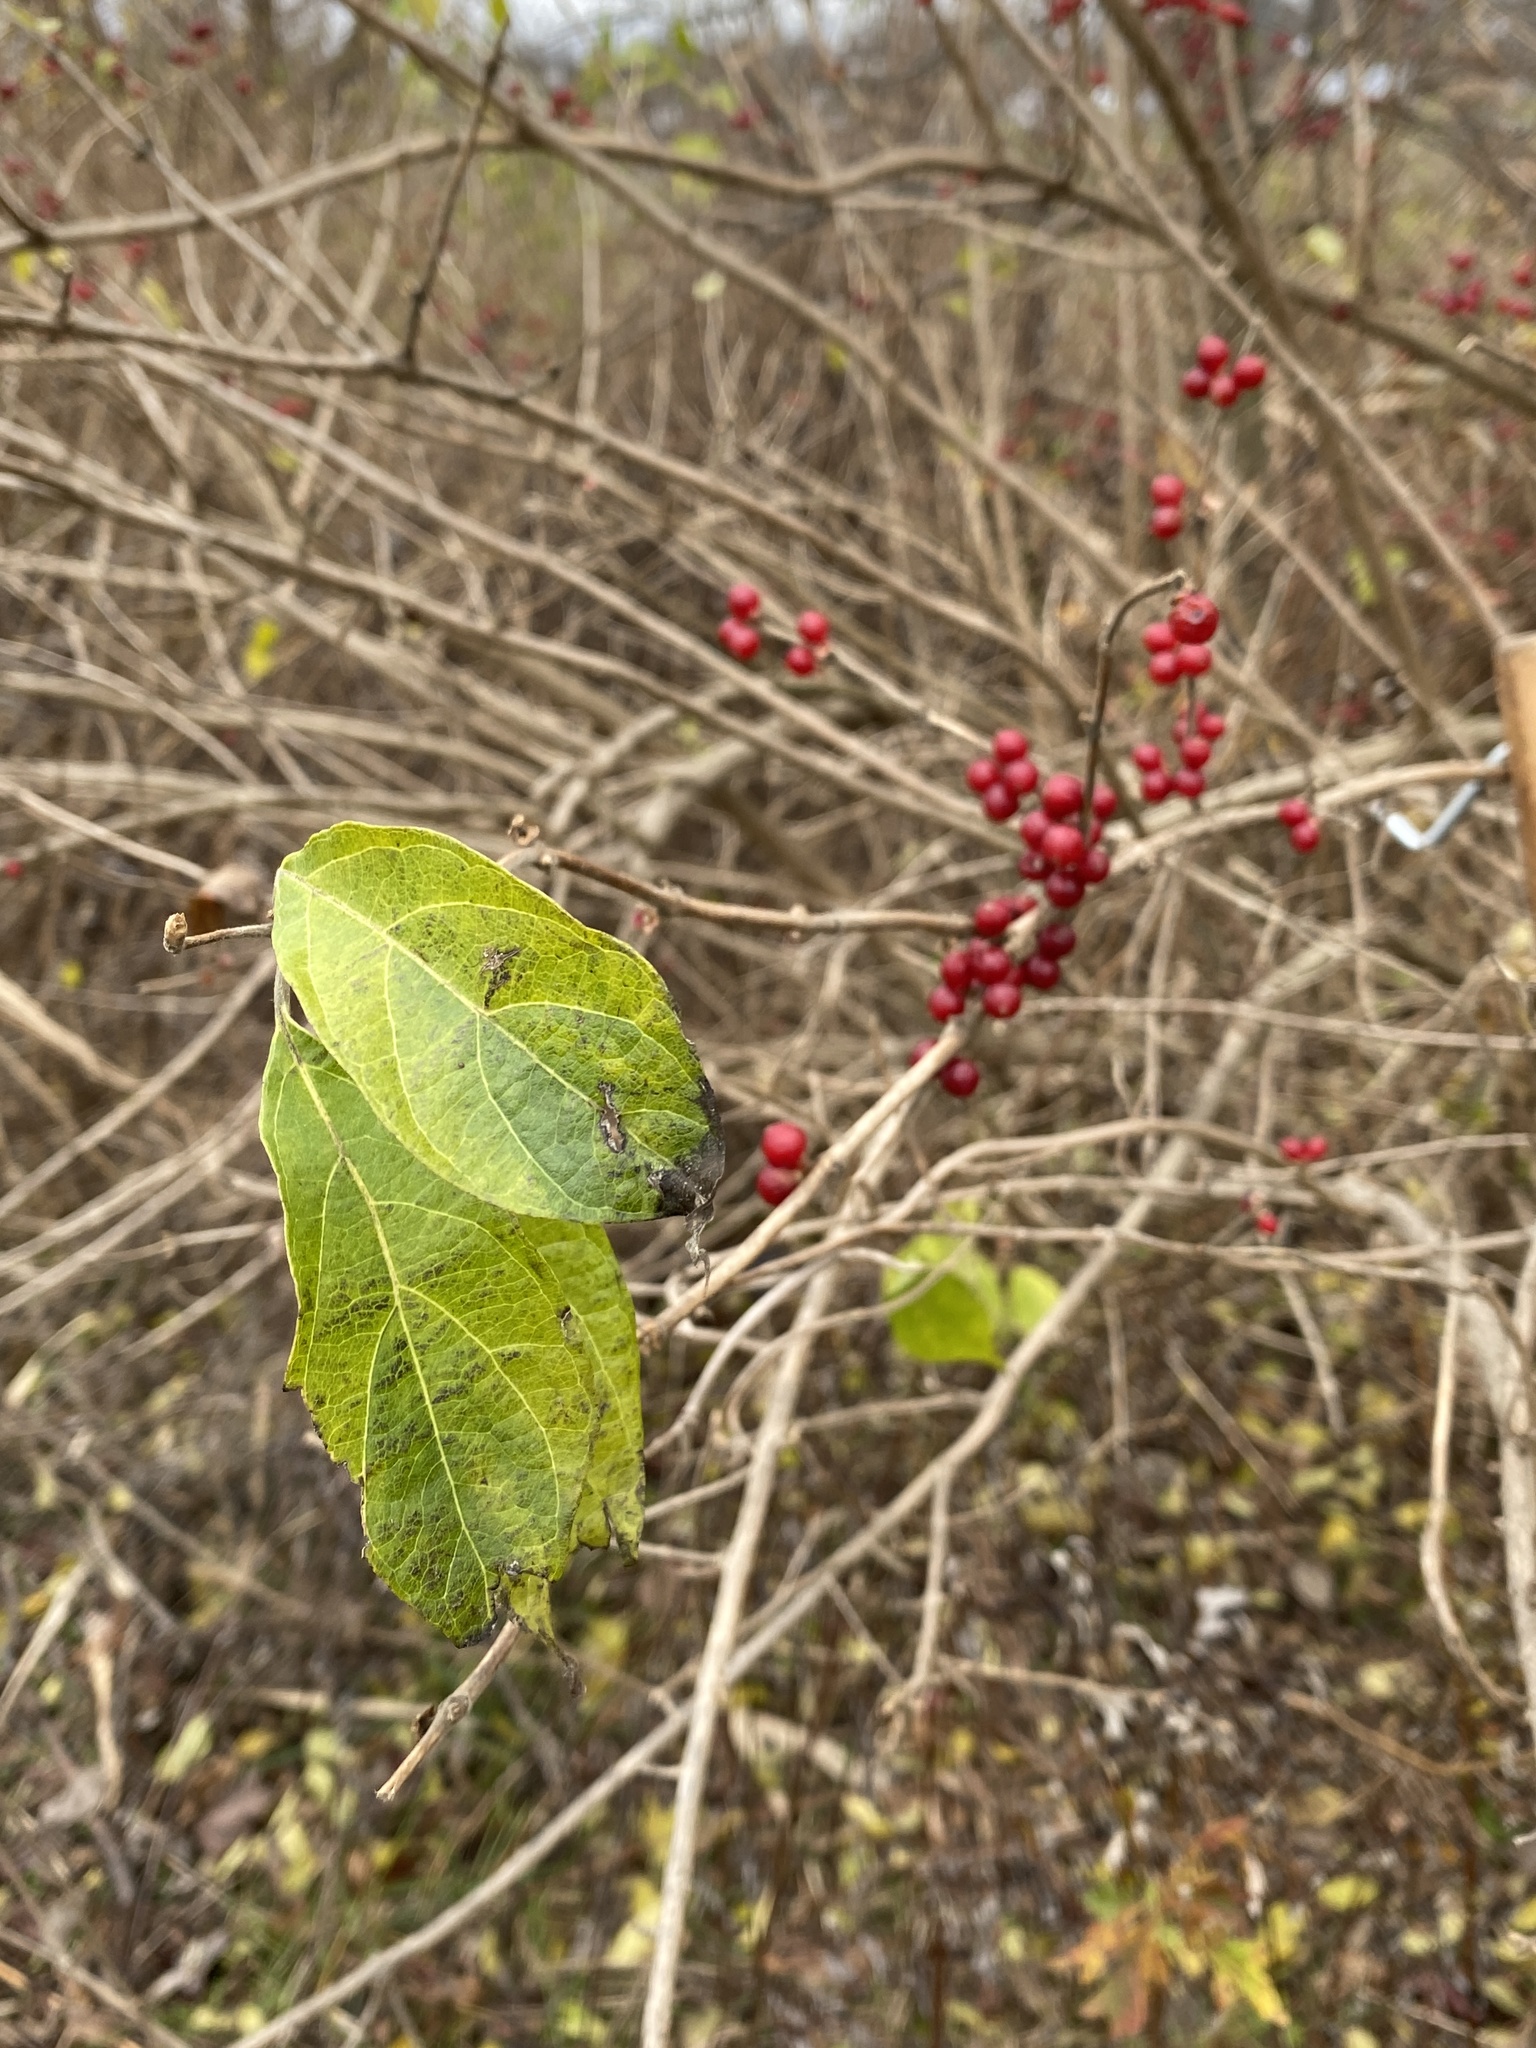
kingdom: Plantae
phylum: Tracheophyta
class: Magnoliopsida
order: Dipsacales
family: Caprifoliaceae
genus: Lonicera
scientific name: Lonicera maackii
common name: Amur honeysuckle
